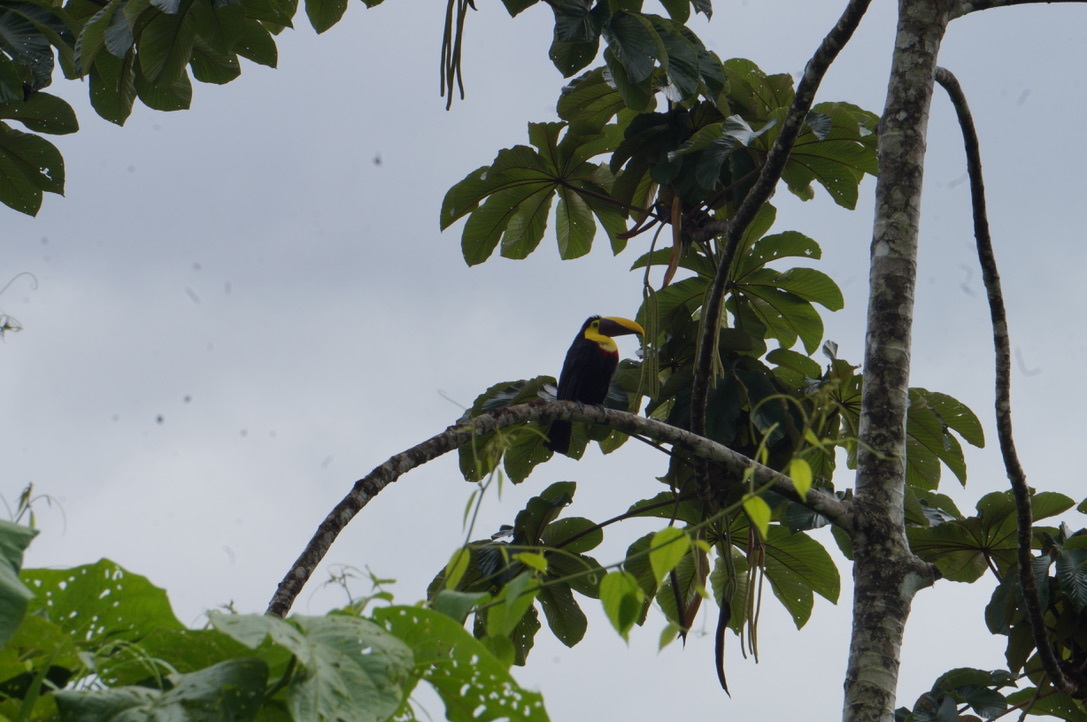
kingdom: Animalia
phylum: Chordata
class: Aves
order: Piciformes
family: Ramphastidae
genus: Ramphastos
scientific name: Ramphastos ambiguus
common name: Yellow-throated toucan
